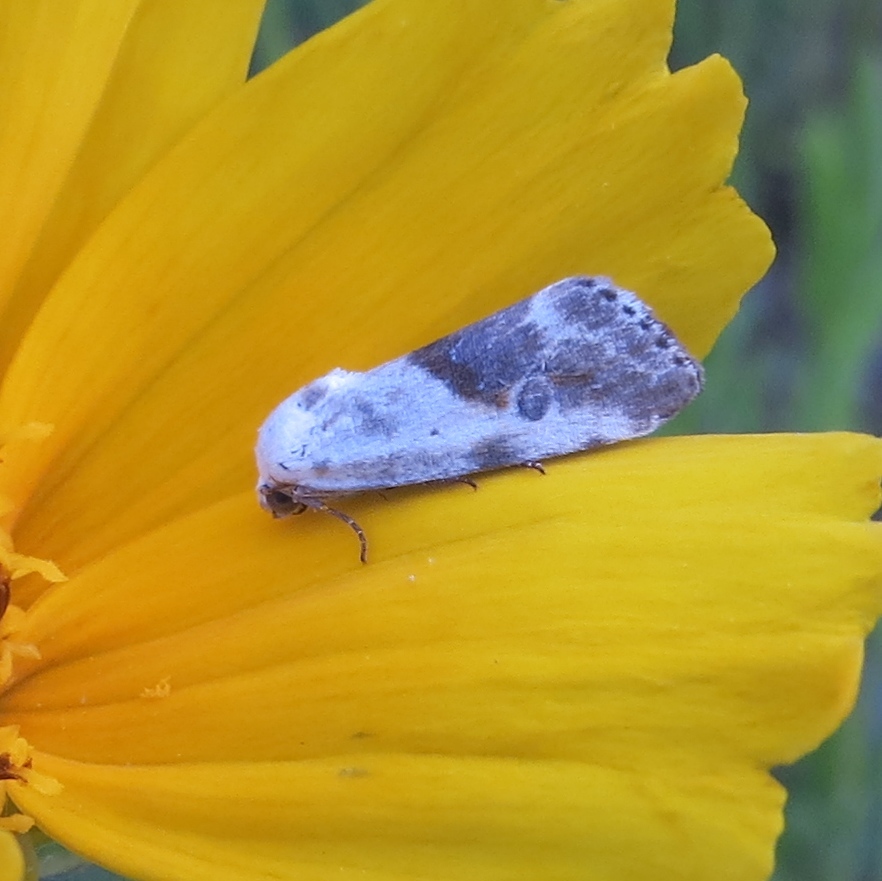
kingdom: Animalia
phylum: Arthropoda
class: Insecta
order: Lepidoptera
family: Noctuidae
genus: Acontia
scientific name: Acontia candefacta
